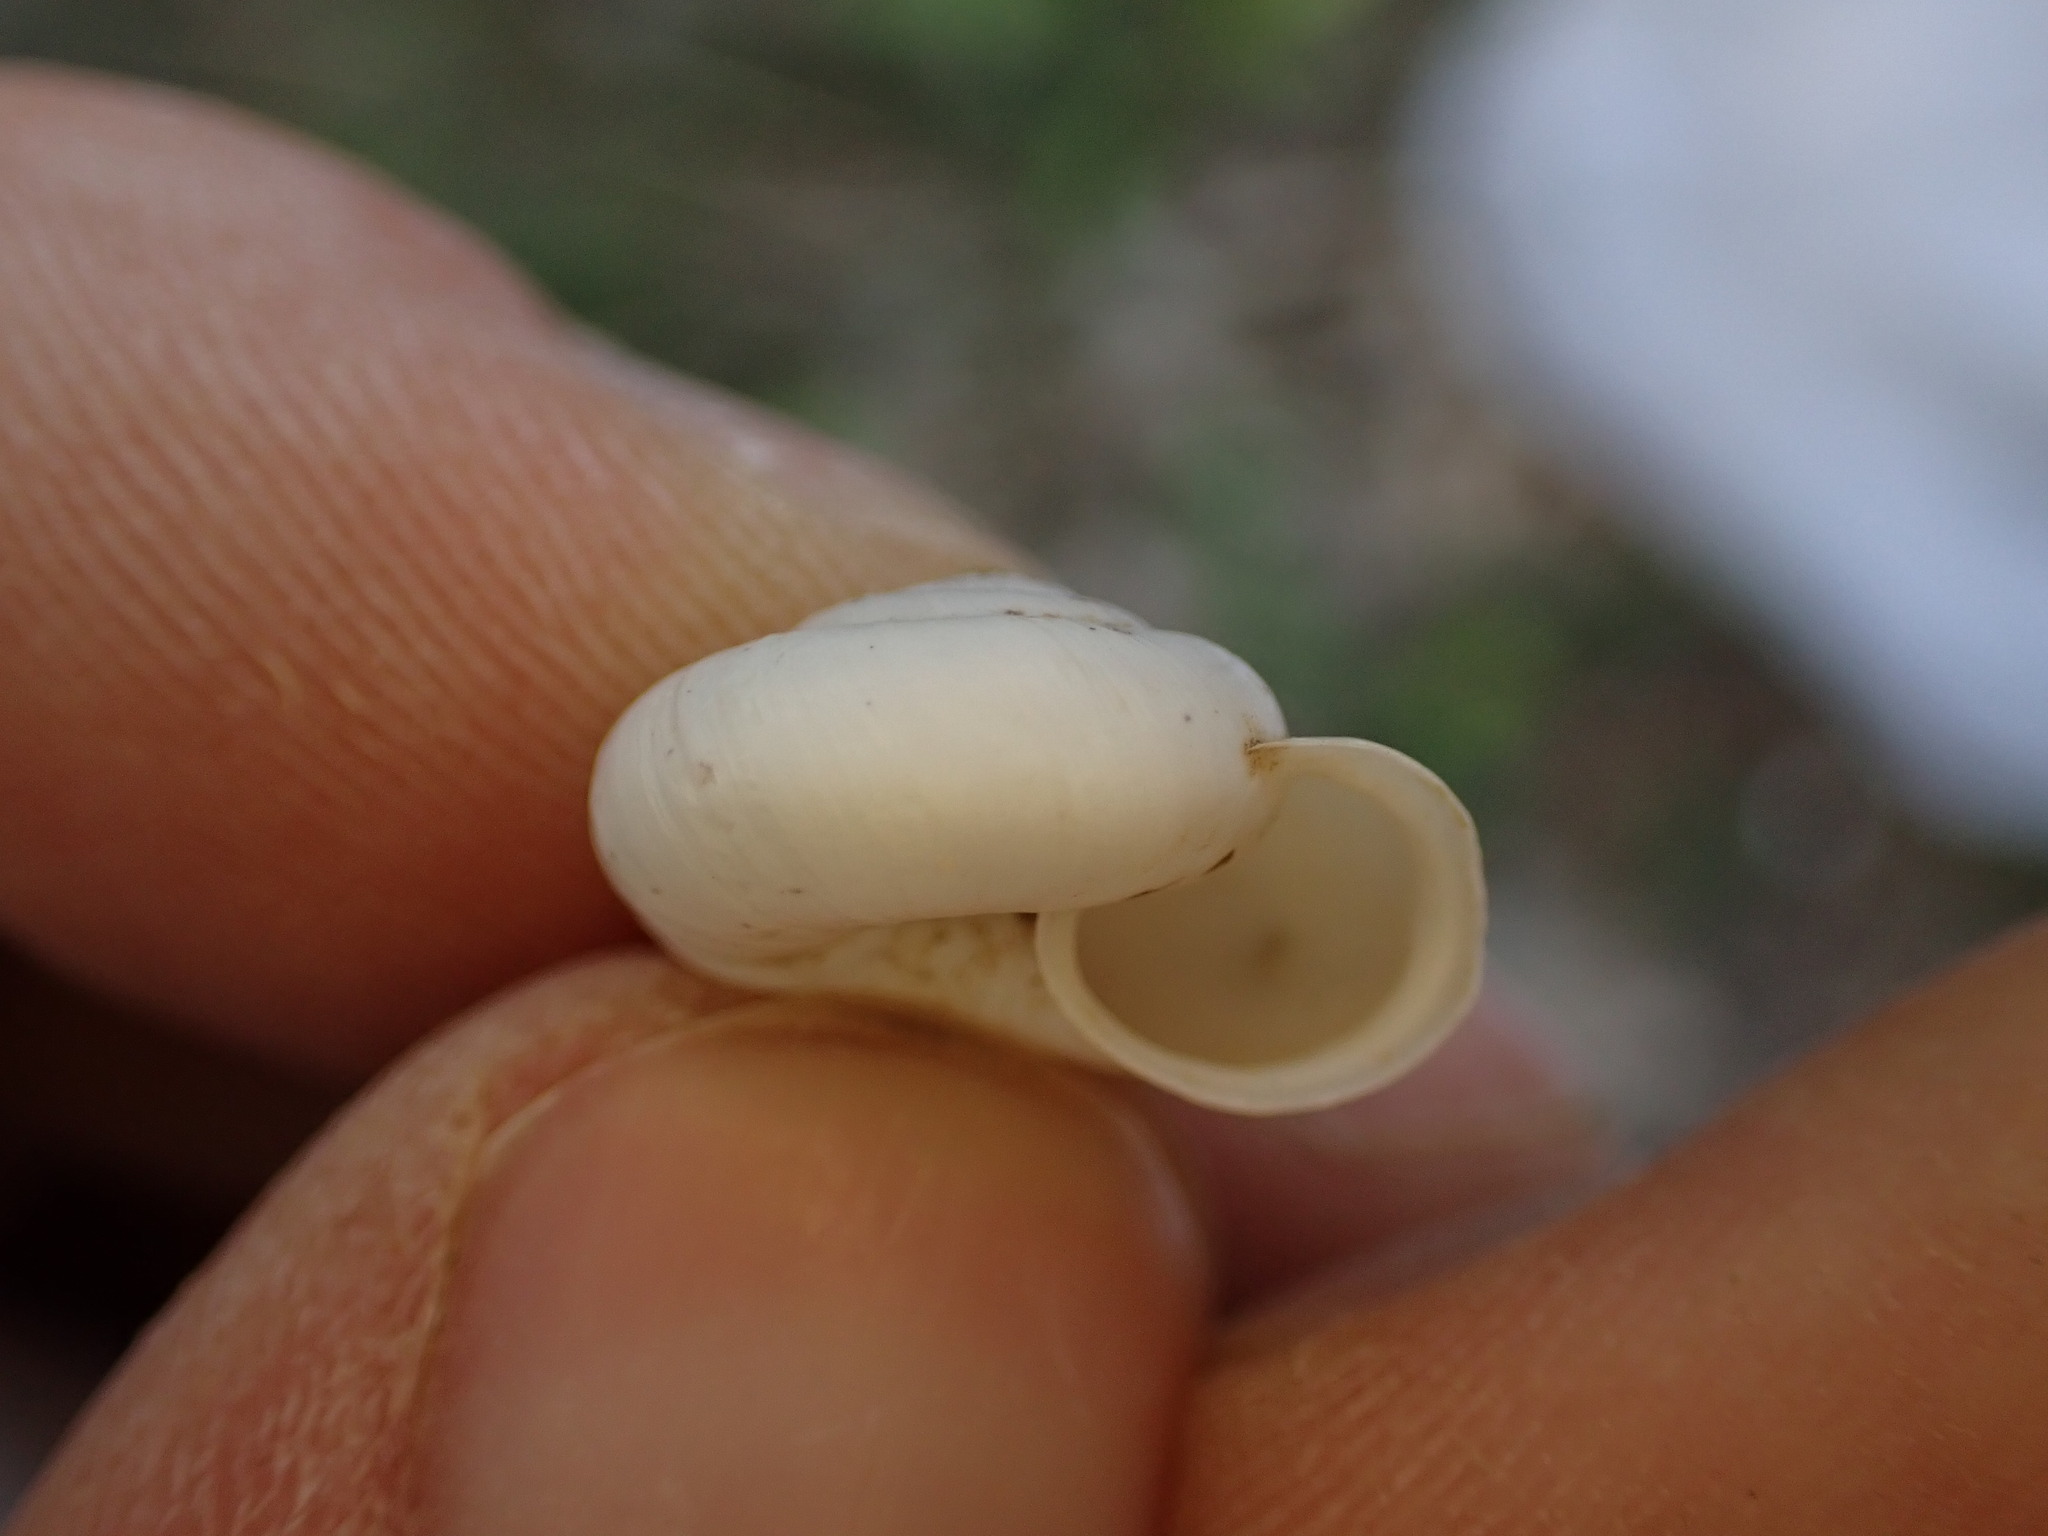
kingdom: Animalia
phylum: Mollusca
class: Gastropoda
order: Stylommatophora
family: Geomitridae
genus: Xeropicta
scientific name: Xeropicta derbentina
